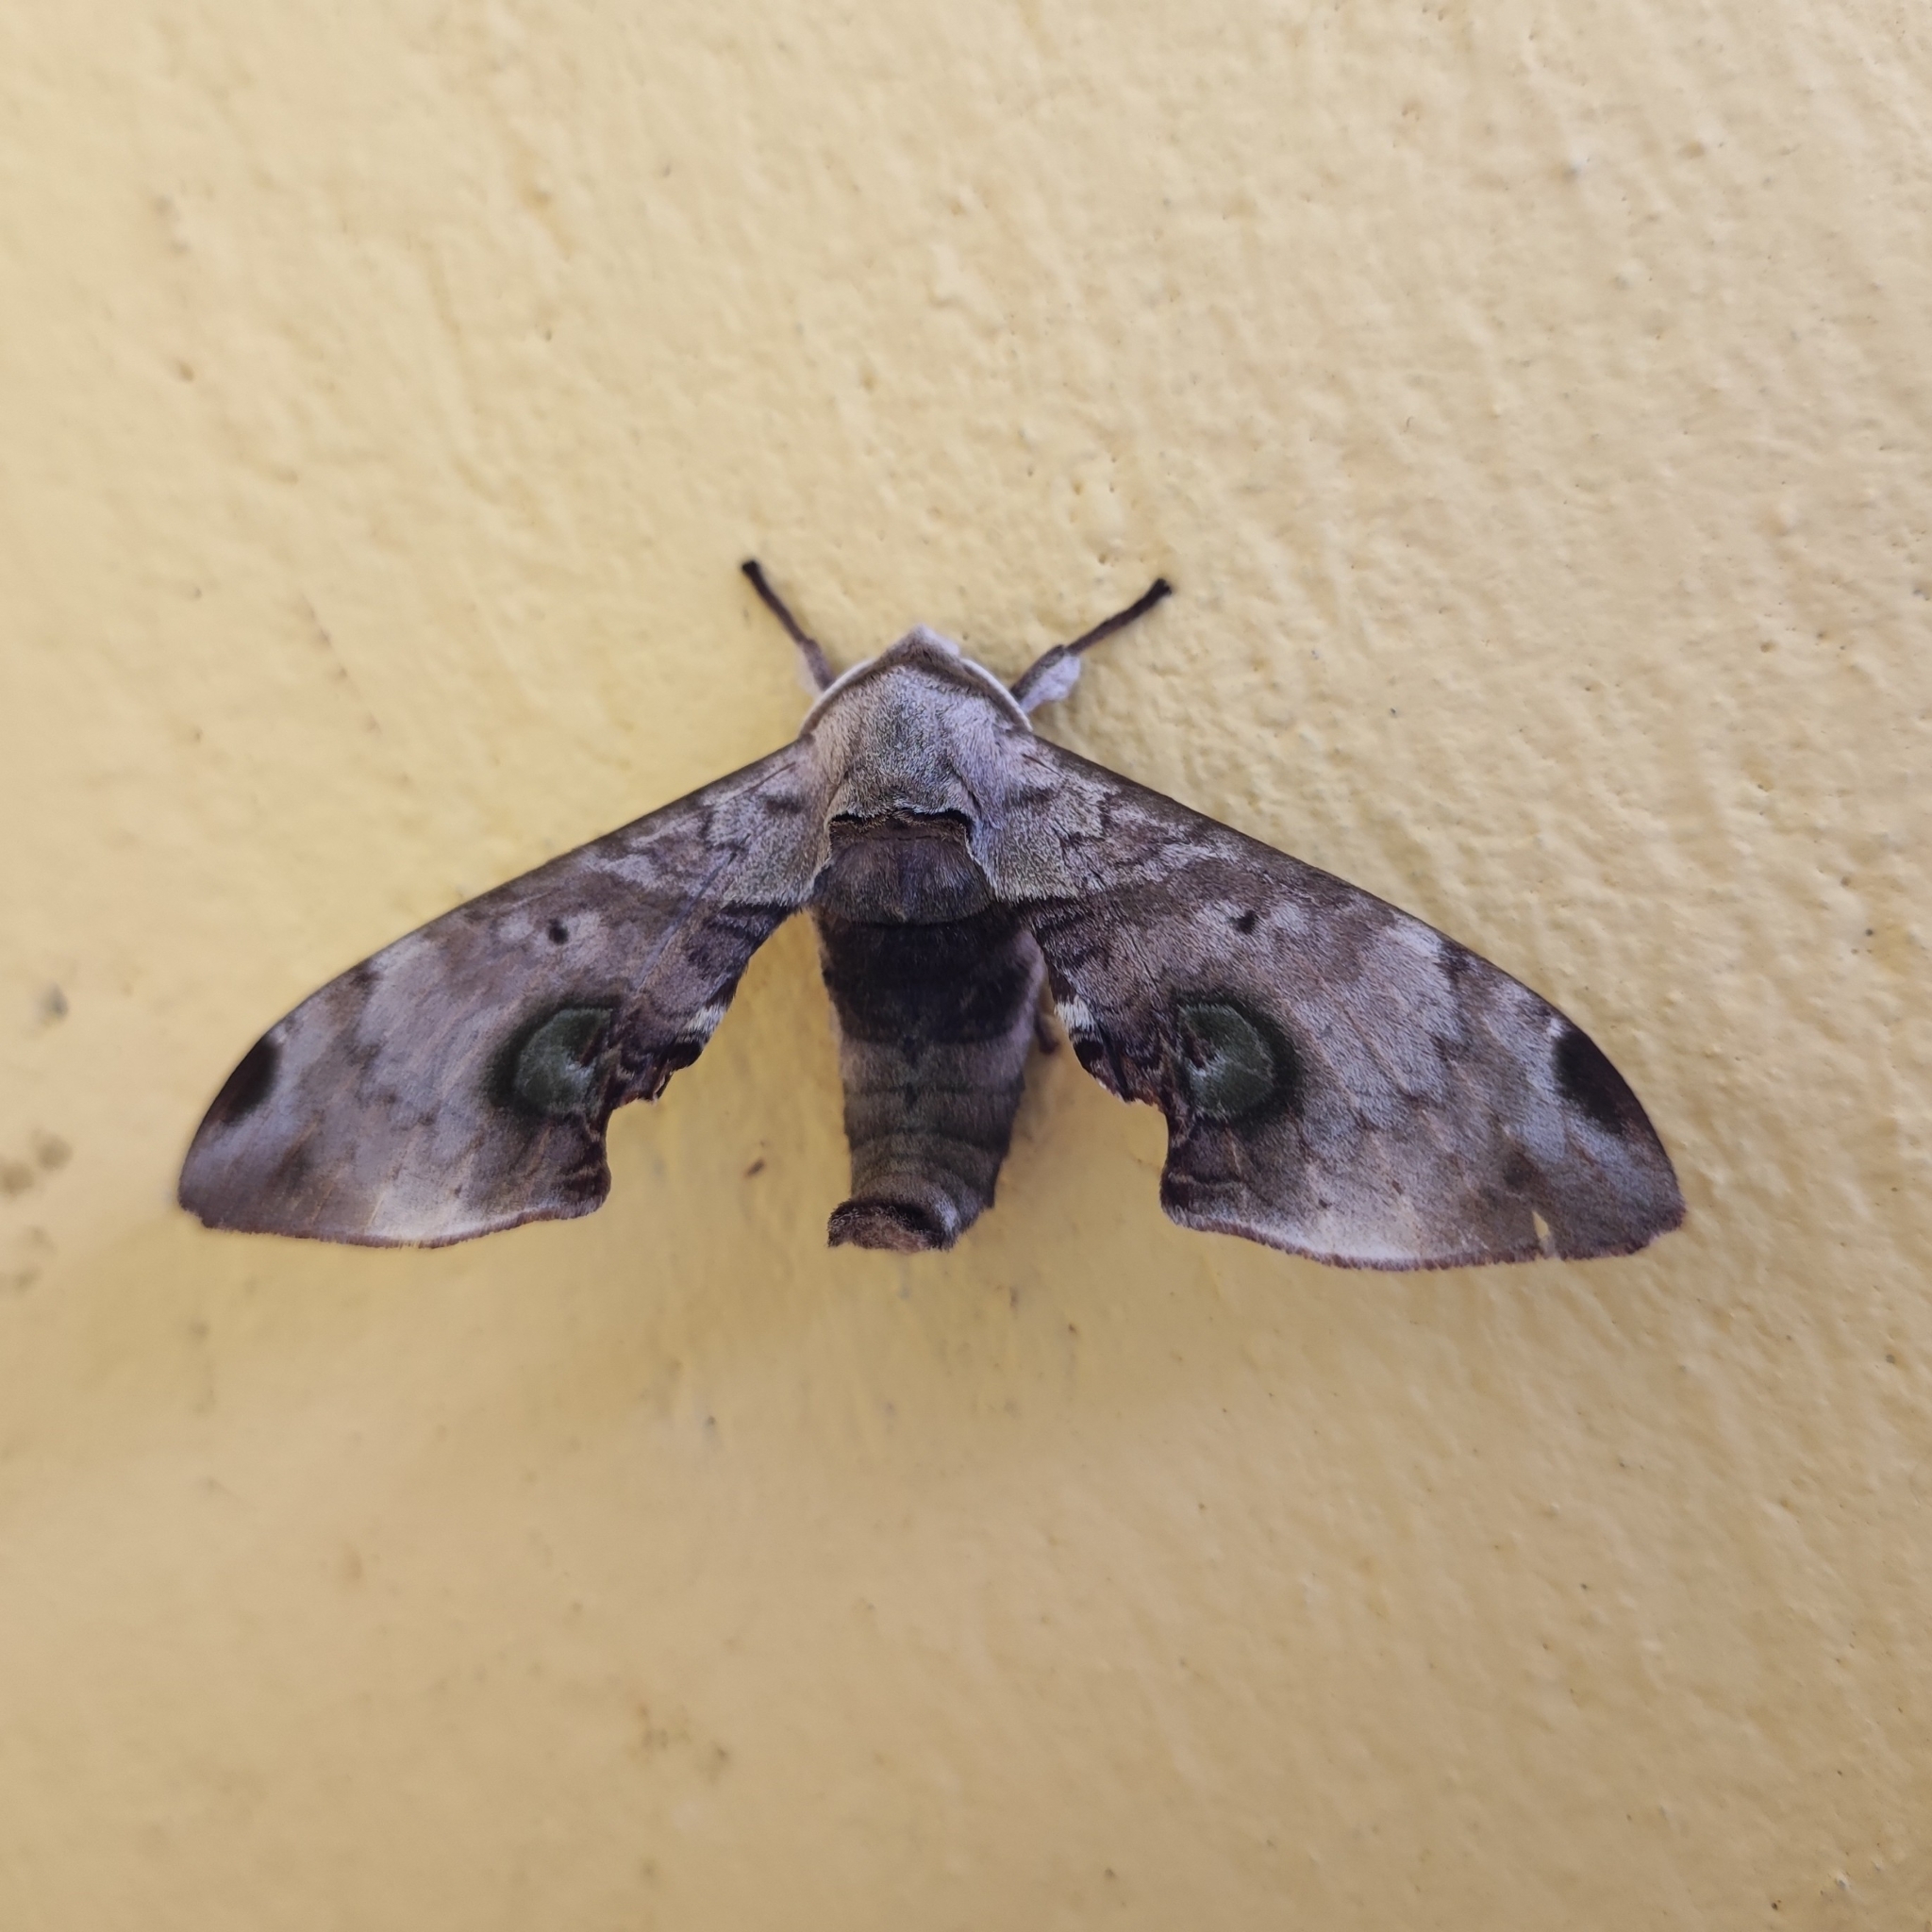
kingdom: Animalia
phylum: Arthropoda
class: Insecta
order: Lepidoptera
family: Sphingidae
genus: Daphnusa
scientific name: Daphnusa ocellaris
